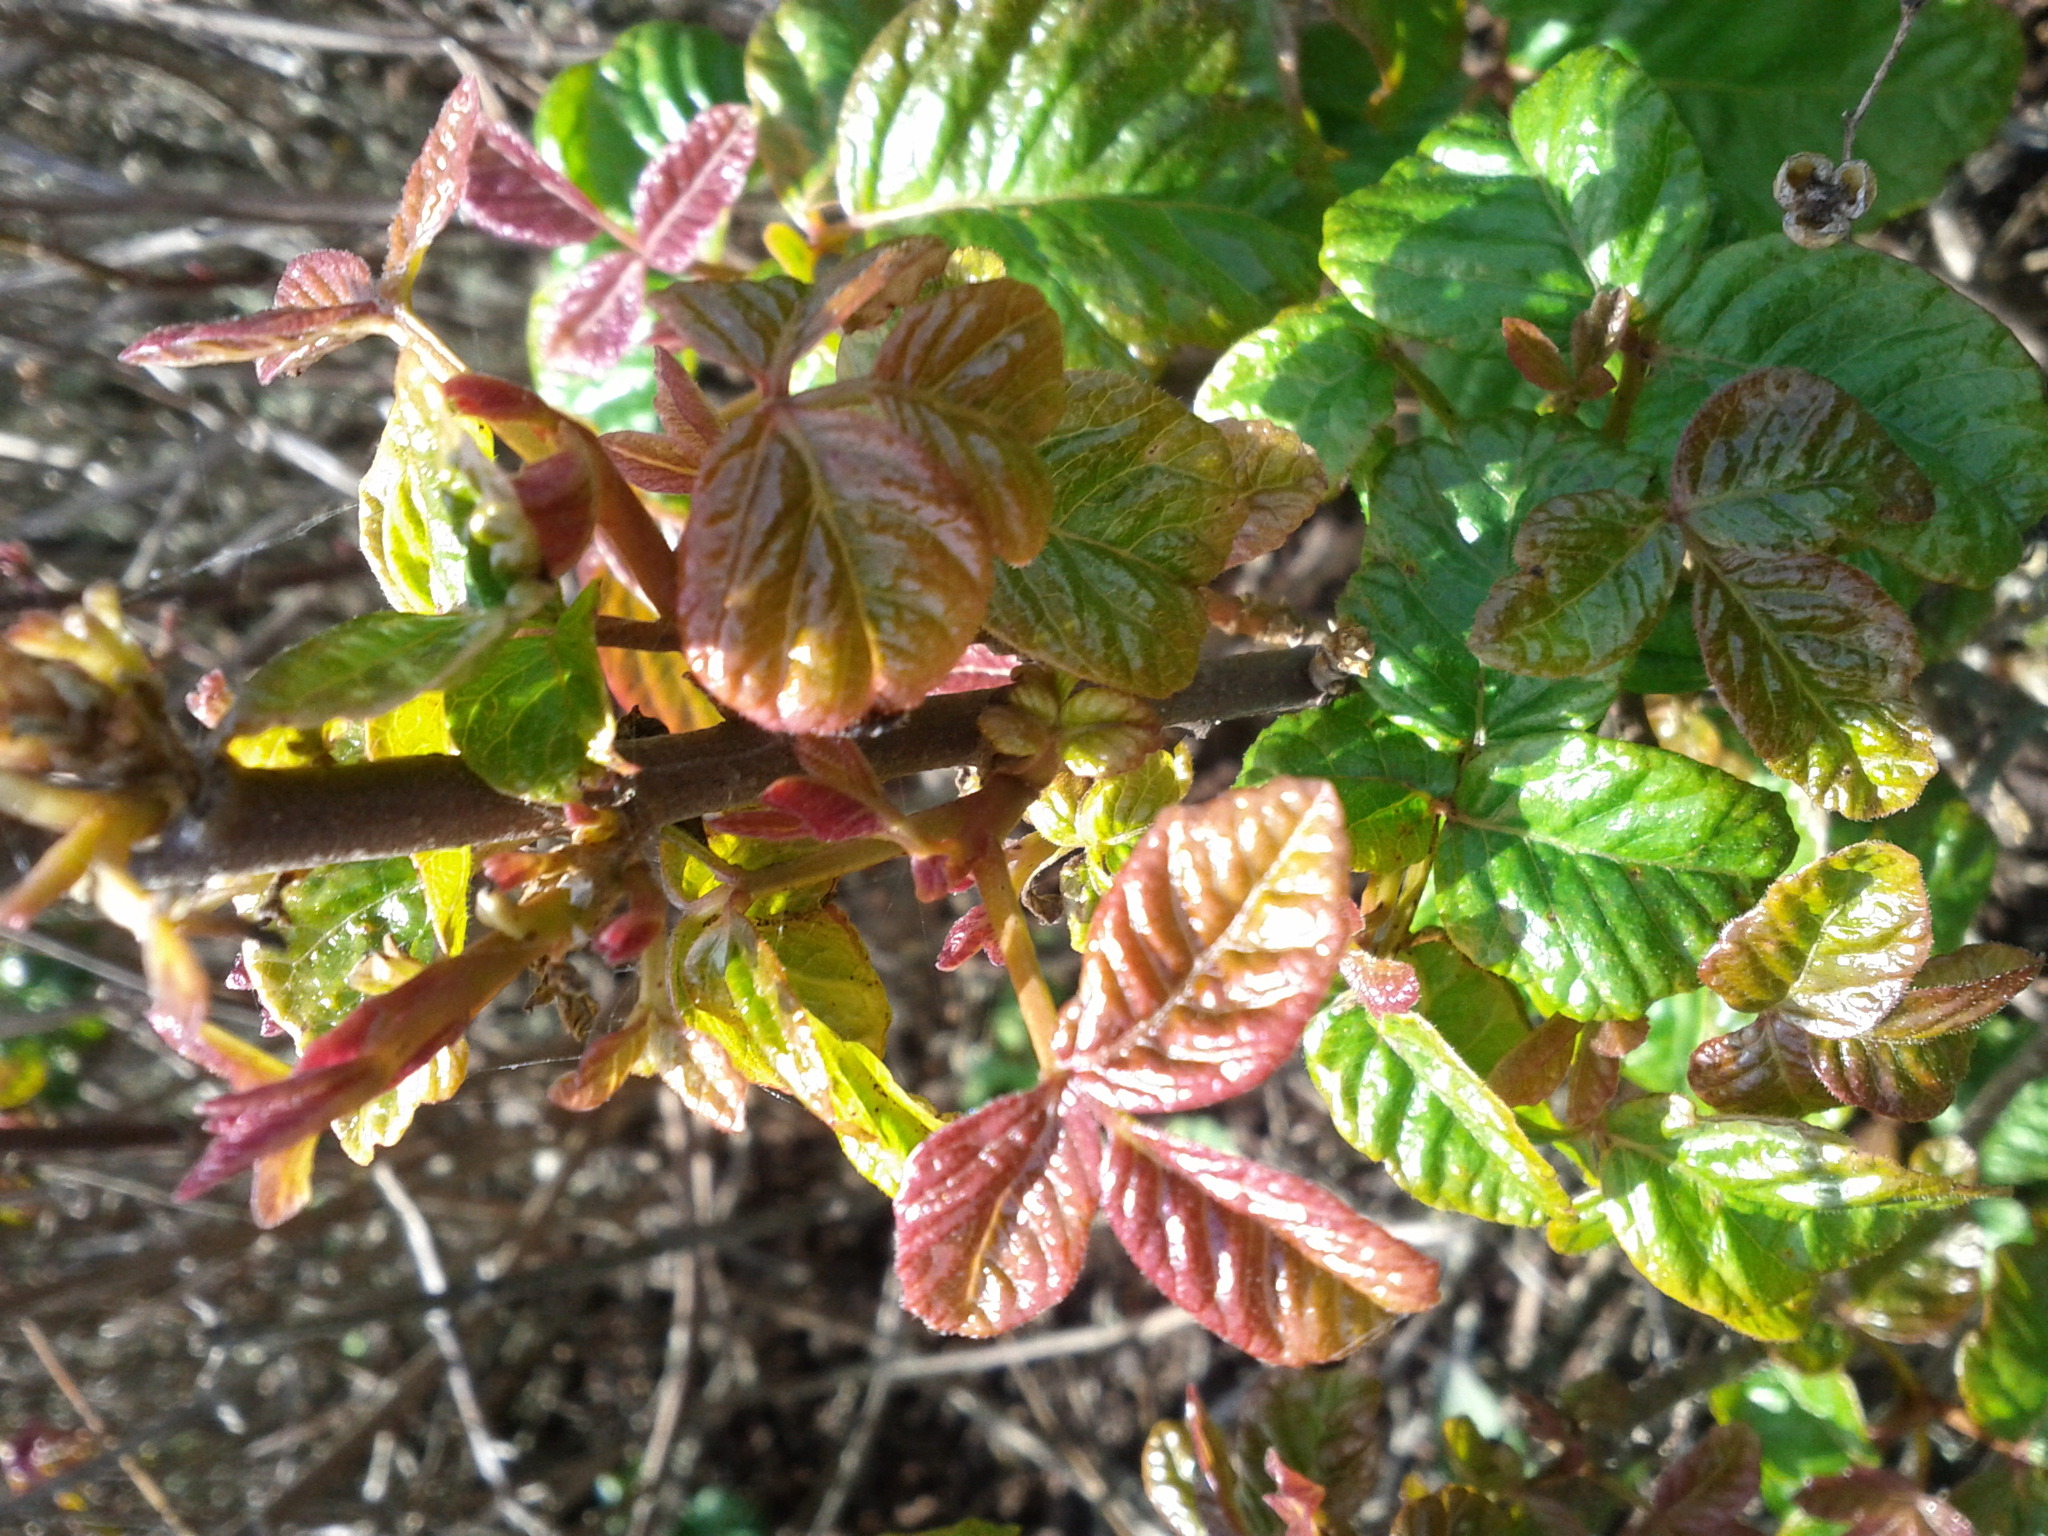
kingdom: Plantae
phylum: Tracheophyta
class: Magnoliopsida
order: Sapindales
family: Anacardiaceae
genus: Toxicodendron
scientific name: Toxicodendron diversilobum
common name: Pacific poison-oak
